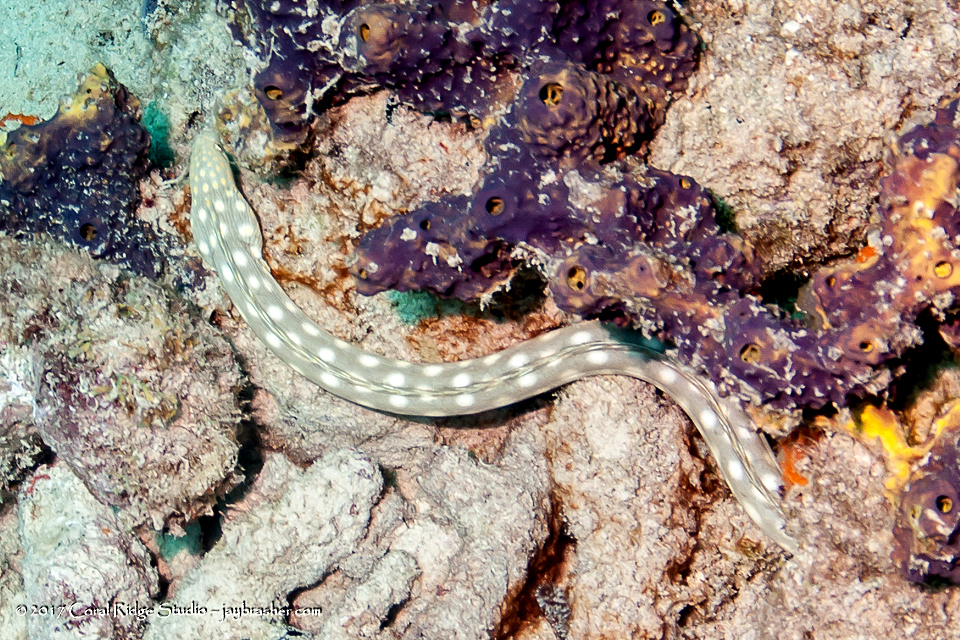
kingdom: Animalia
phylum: Chordata
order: Anguilliformes
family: Ophichthidae
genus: Myrichthys
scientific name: Myrichthys breviceps
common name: Sharptail eel
